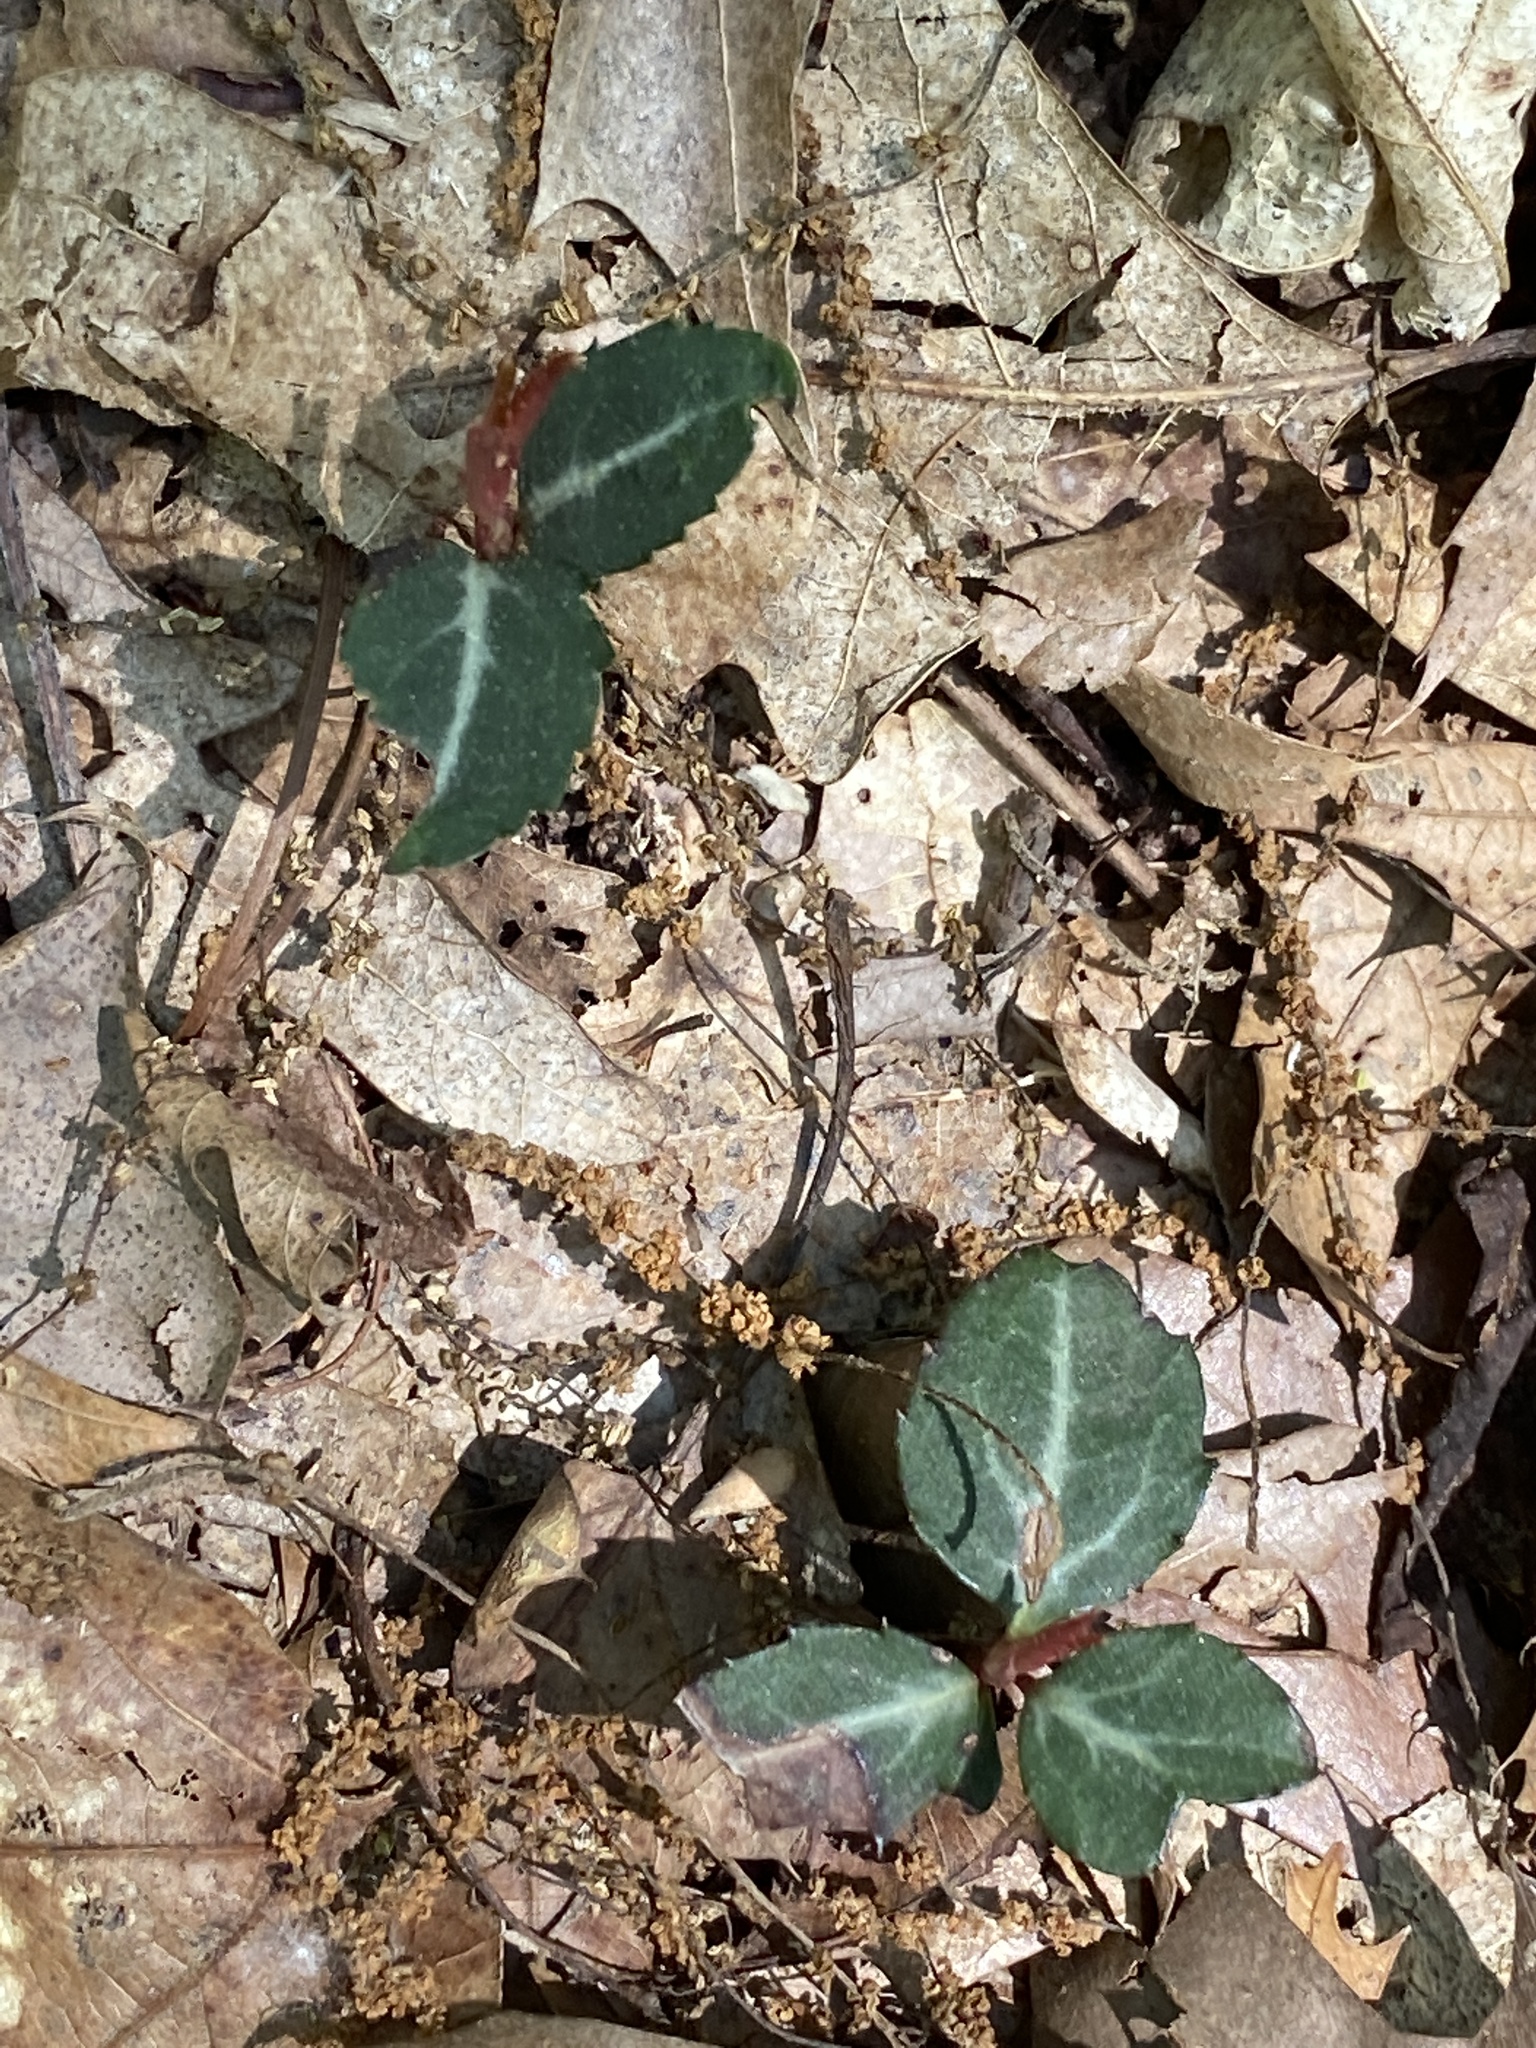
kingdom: Plantae
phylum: Tracheophyta
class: Magnoliopsida
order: Ericales
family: Ericaceae
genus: Chimaphila
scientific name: Chimaphila maculata
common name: Spotted pipsissewa
